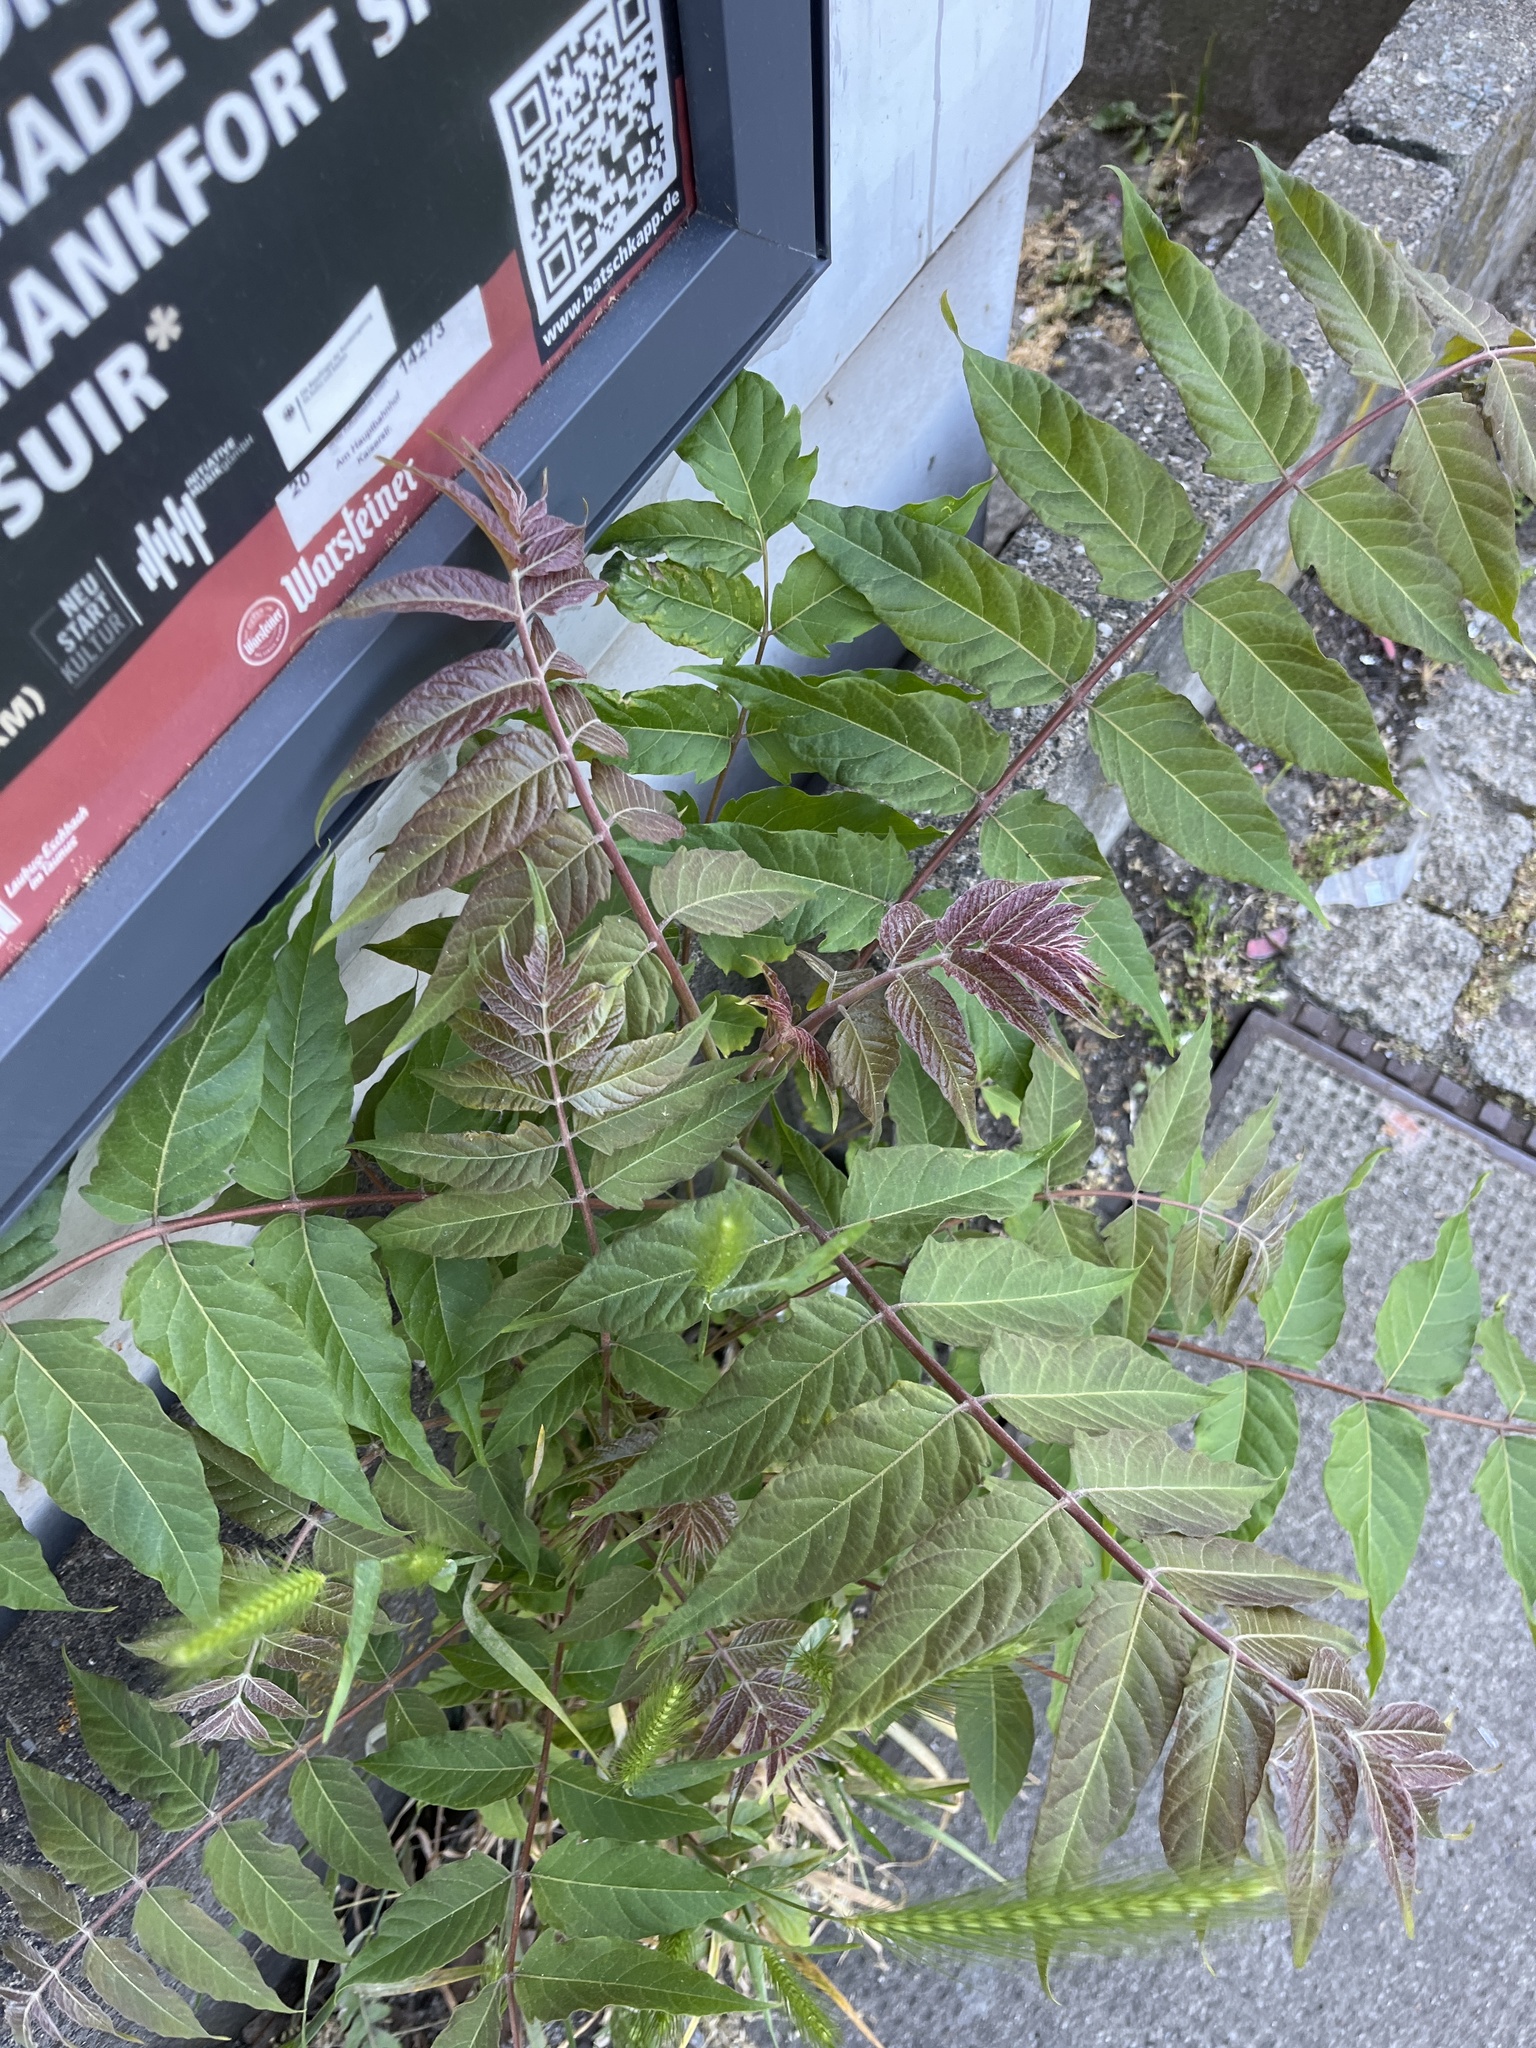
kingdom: Plantae
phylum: Tracheophyta
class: Magnoliopsida
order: Sapindales
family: Simaroubaceae
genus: Ailanthus
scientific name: Ailanthus altissima
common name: Tree-of-heaven
